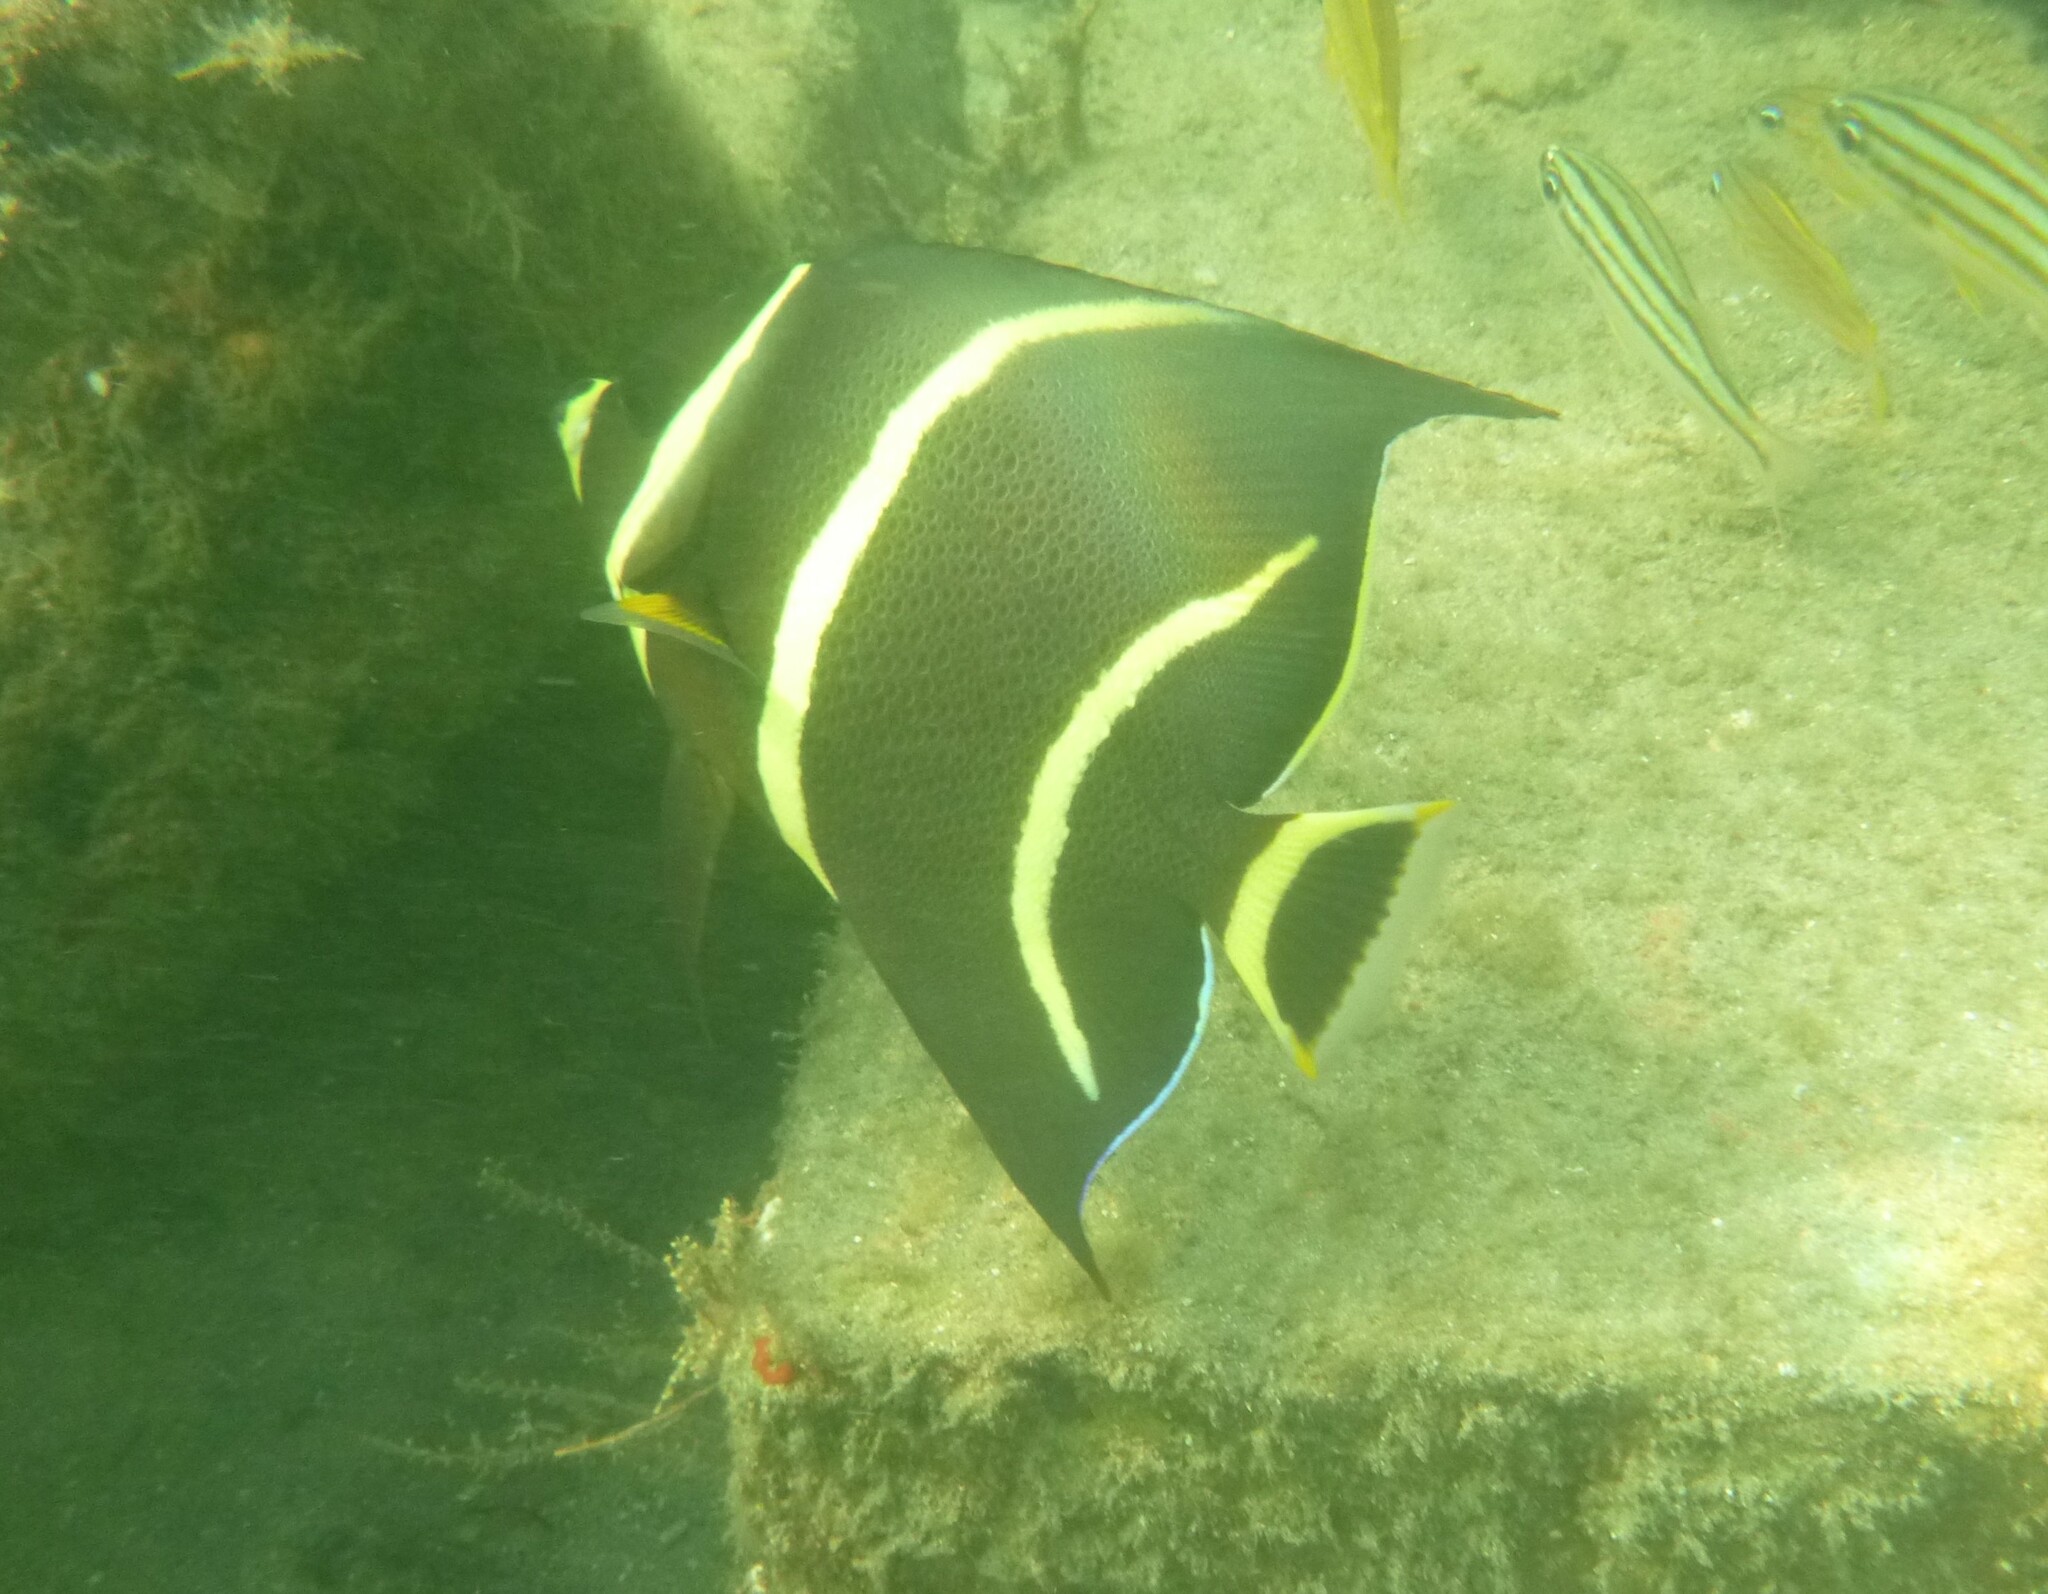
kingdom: Animalia
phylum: Chordata
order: Perciformes
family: Pomacanthidae
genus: Pomacanthus
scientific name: Pomacanthus arcuatus
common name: Gray angelfish
